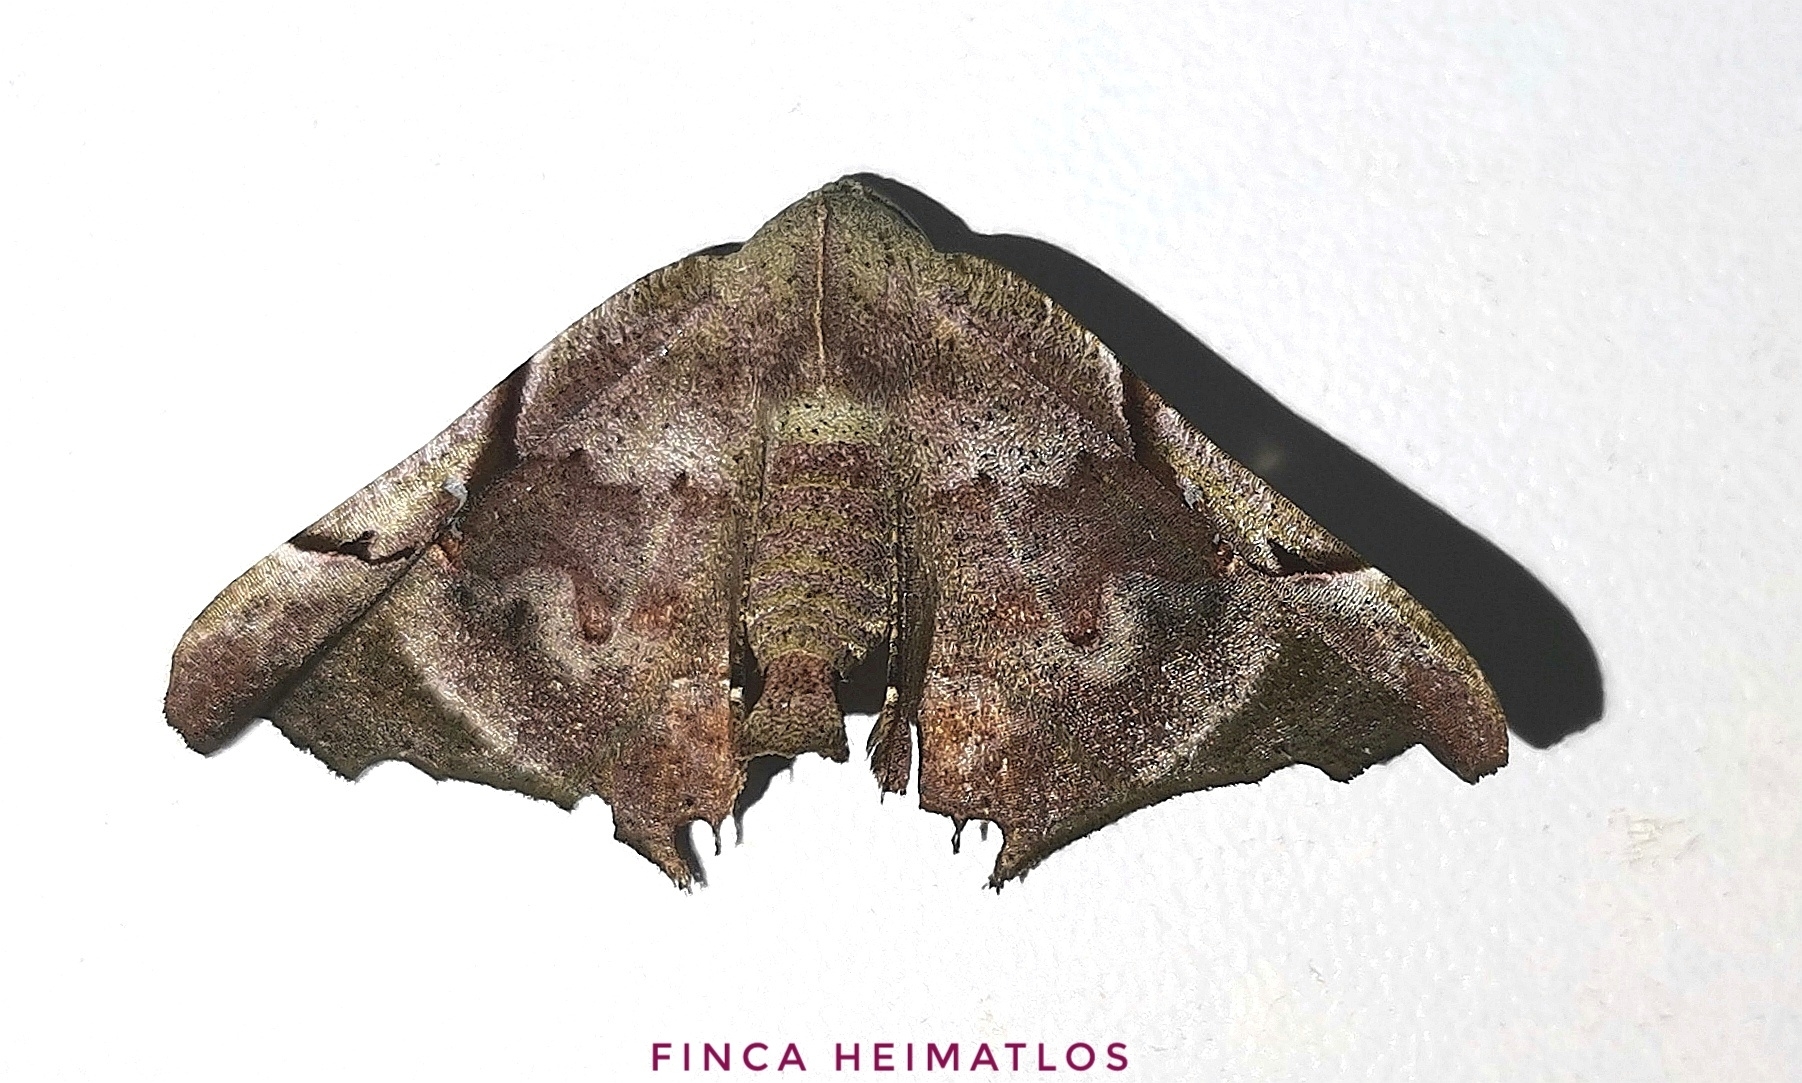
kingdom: Animalia
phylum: Arthropoda
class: Insecta
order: Lepidoptera
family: Geometridae
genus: Pero
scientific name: Pero incisa
